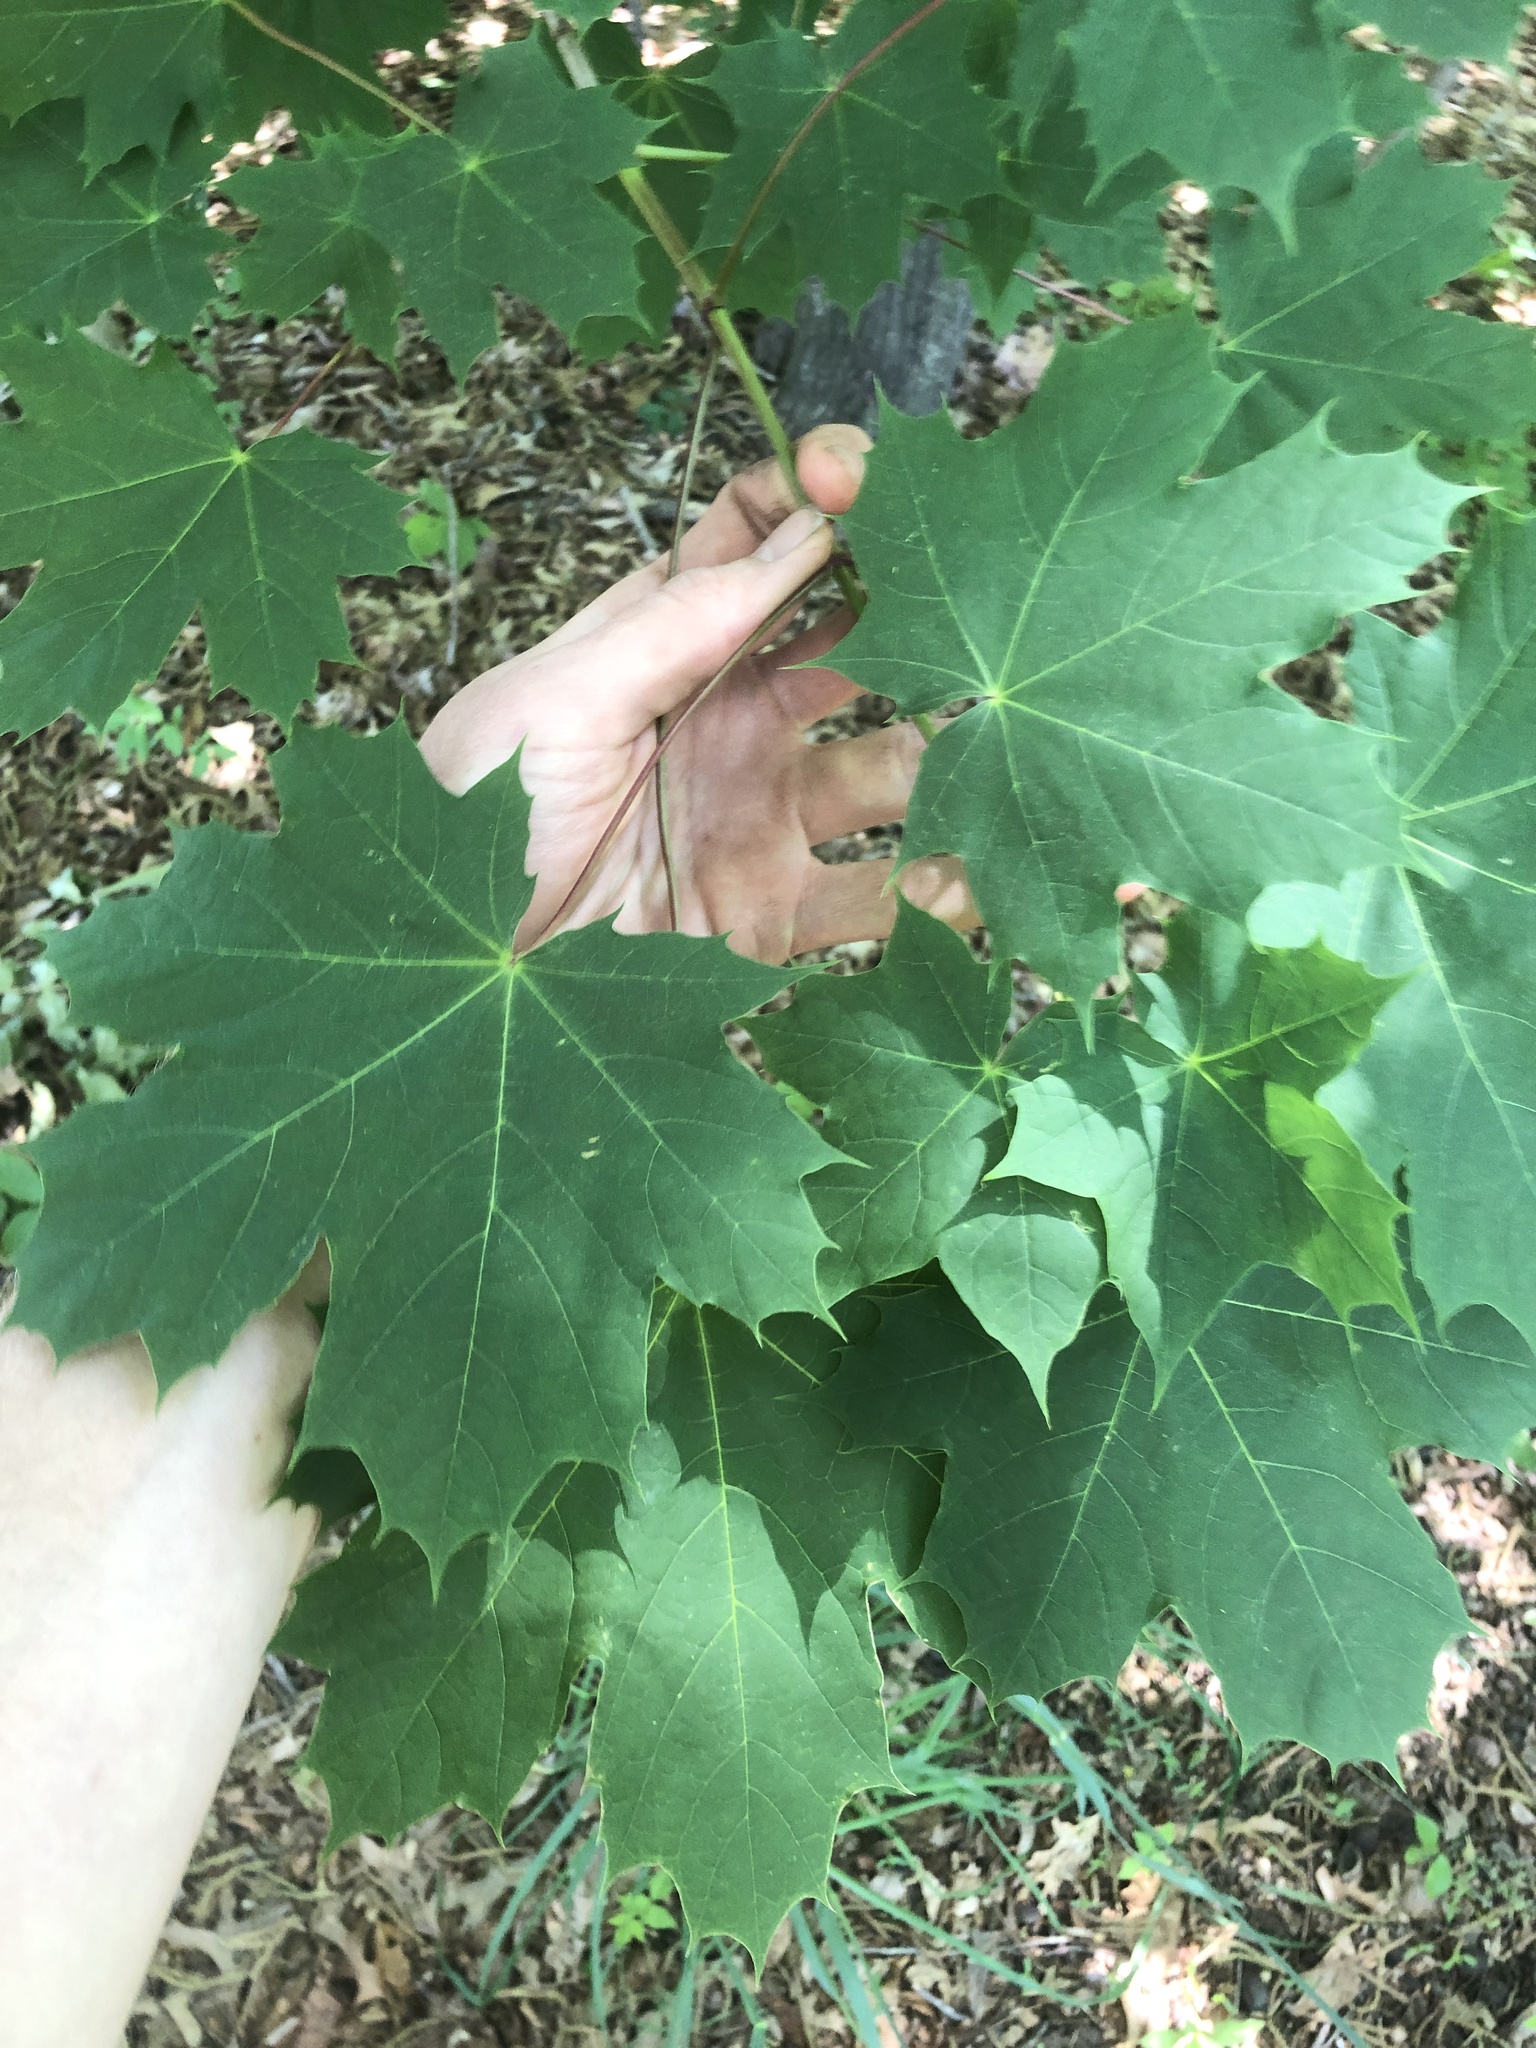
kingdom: Plantae
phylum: Tracheophyta
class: Magnoliopsida
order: Sapindales
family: Sapindaceae
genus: Acer
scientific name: Acer platanoides
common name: Norway maple
